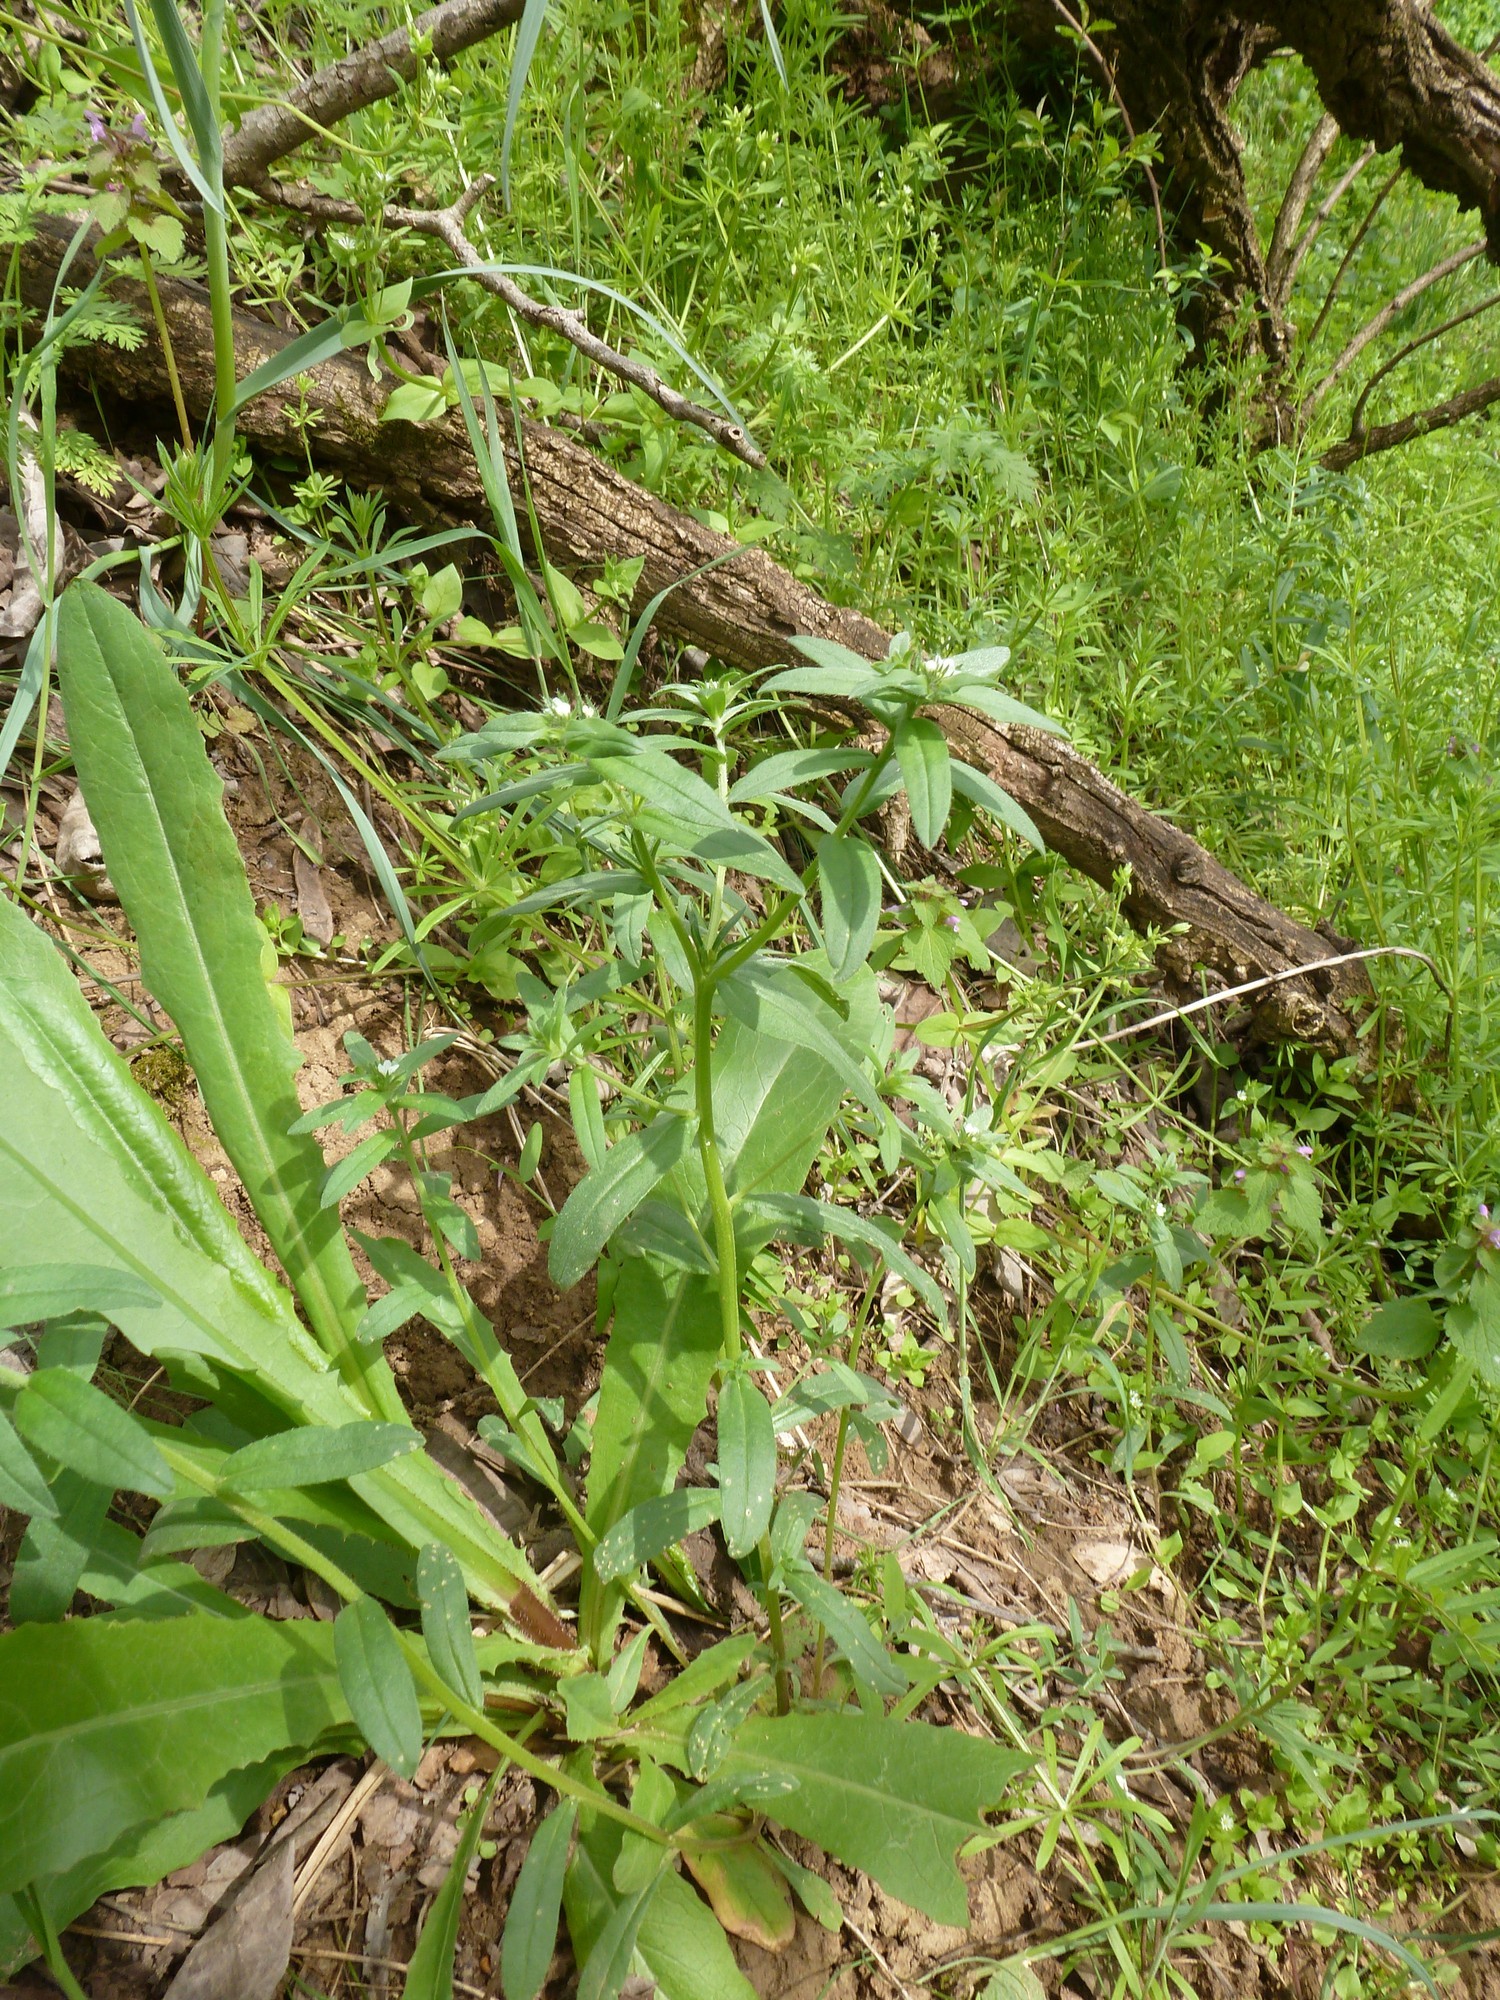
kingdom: Plantae
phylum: Tracheophyta
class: Magnoliopsida
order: Boraginales
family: Boraginaceae
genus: Buglossoides
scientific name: Buglossoides arvensis
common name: Corn gromwell
